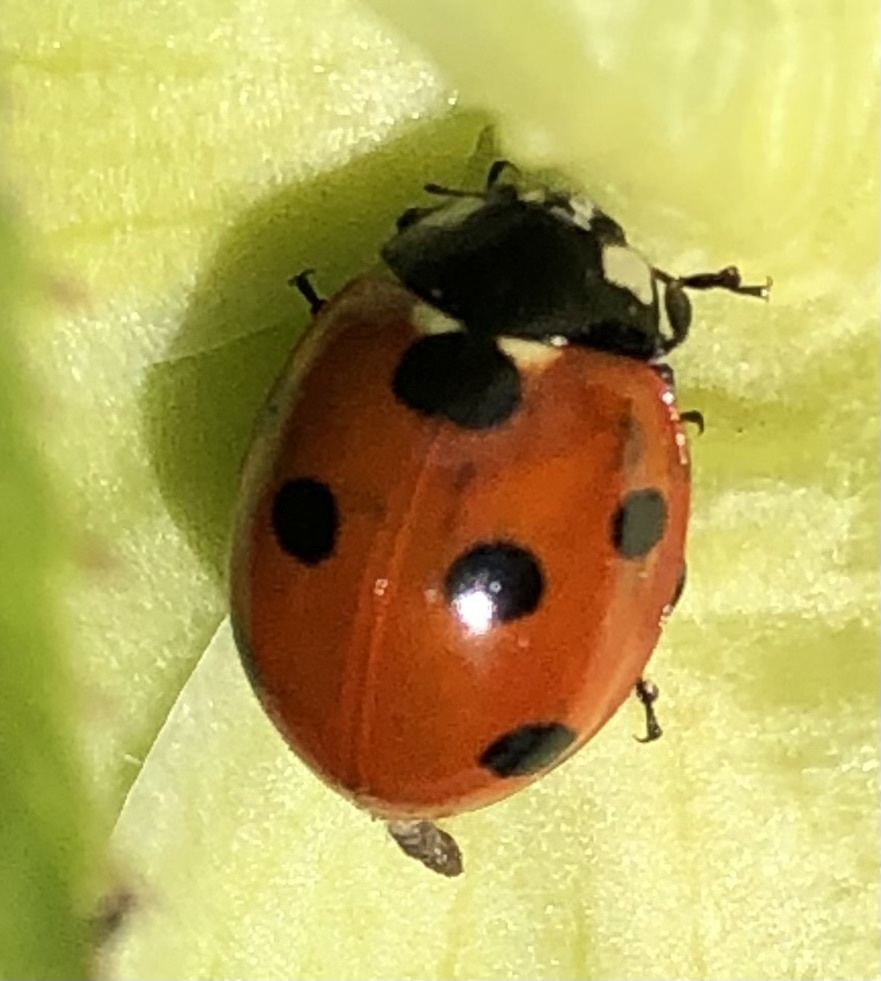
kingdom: Animalia
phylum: Arthropoda
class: Insecta
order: Coleoptera
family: Coccinellidae
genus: Coccinella
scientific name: Coccinella septempunctata
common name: Sevenspotted lady beetle
